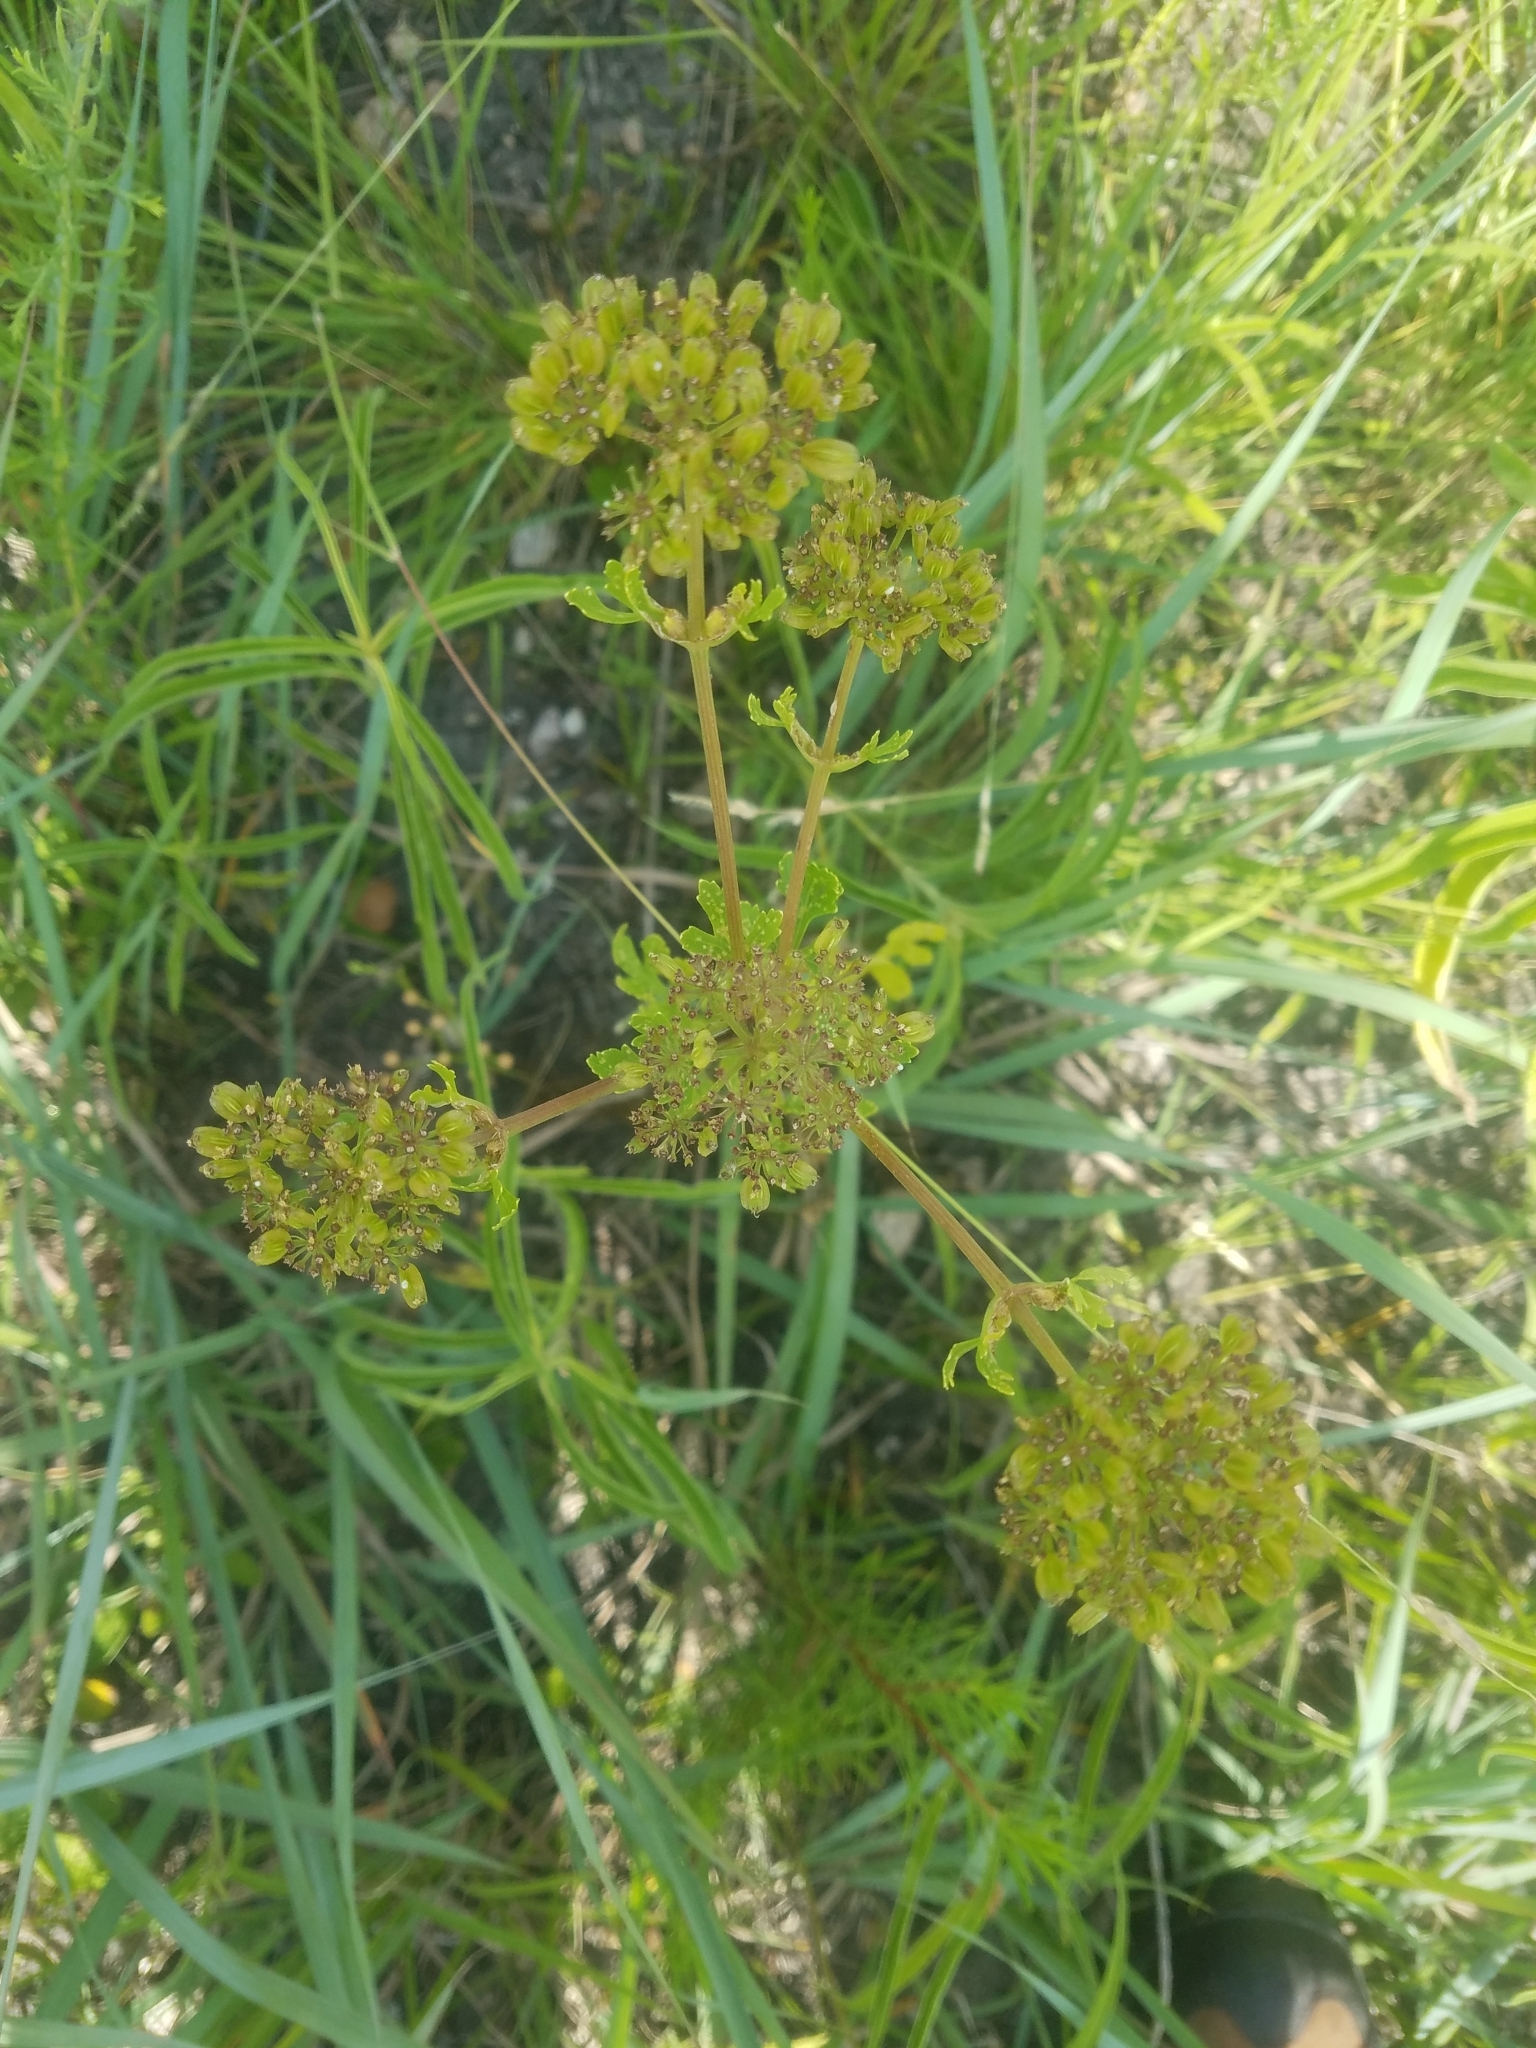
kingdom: Plantae
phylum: Tracheophyta
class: Magnoliopsida
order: Apiales
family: Apiaceae
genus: Polytaenia
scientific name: Polytaenia texana
